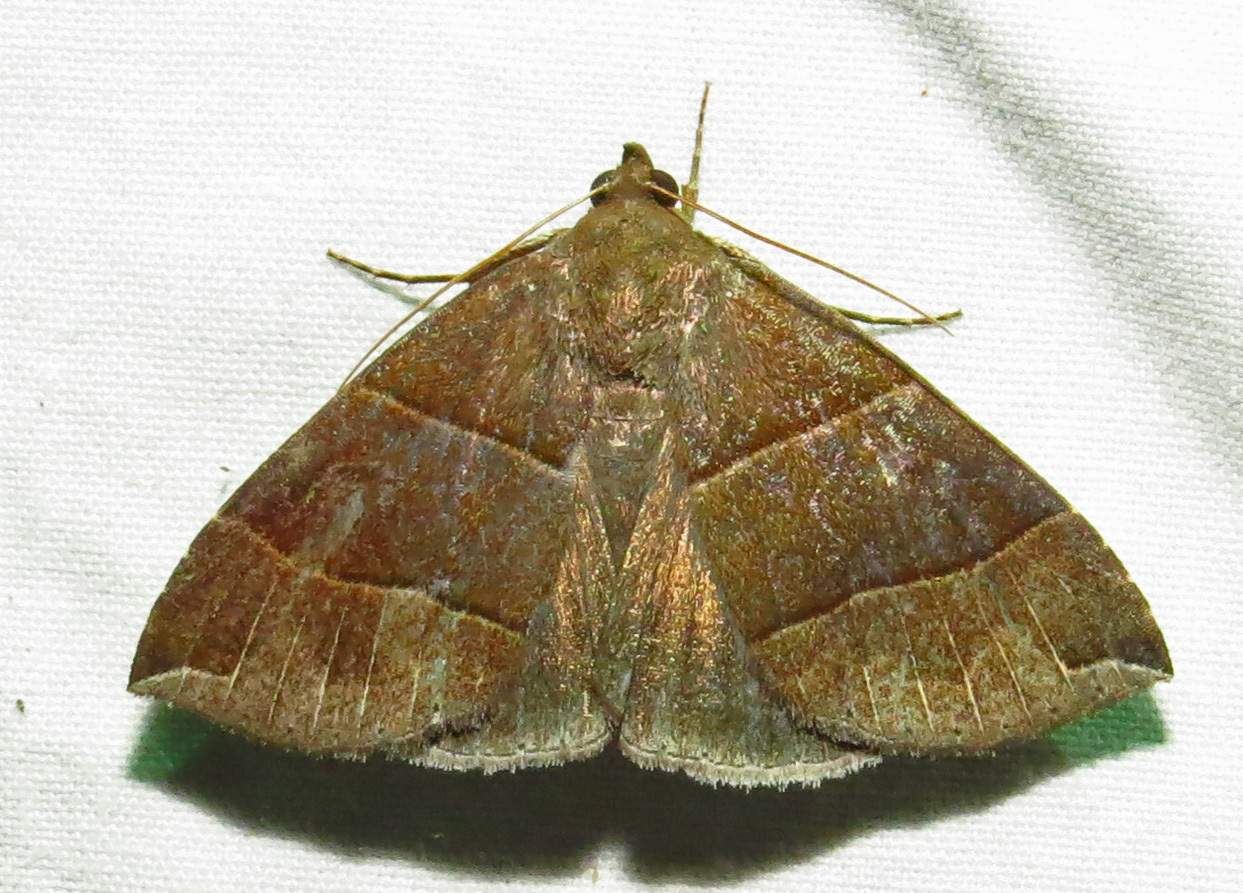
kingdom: Animalia
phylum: Arthropoda
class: Insecta
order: Lepidoptera
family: Erebidae
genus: Parallelia
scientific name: Parallelia bistriaris
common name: Maple looper moth
